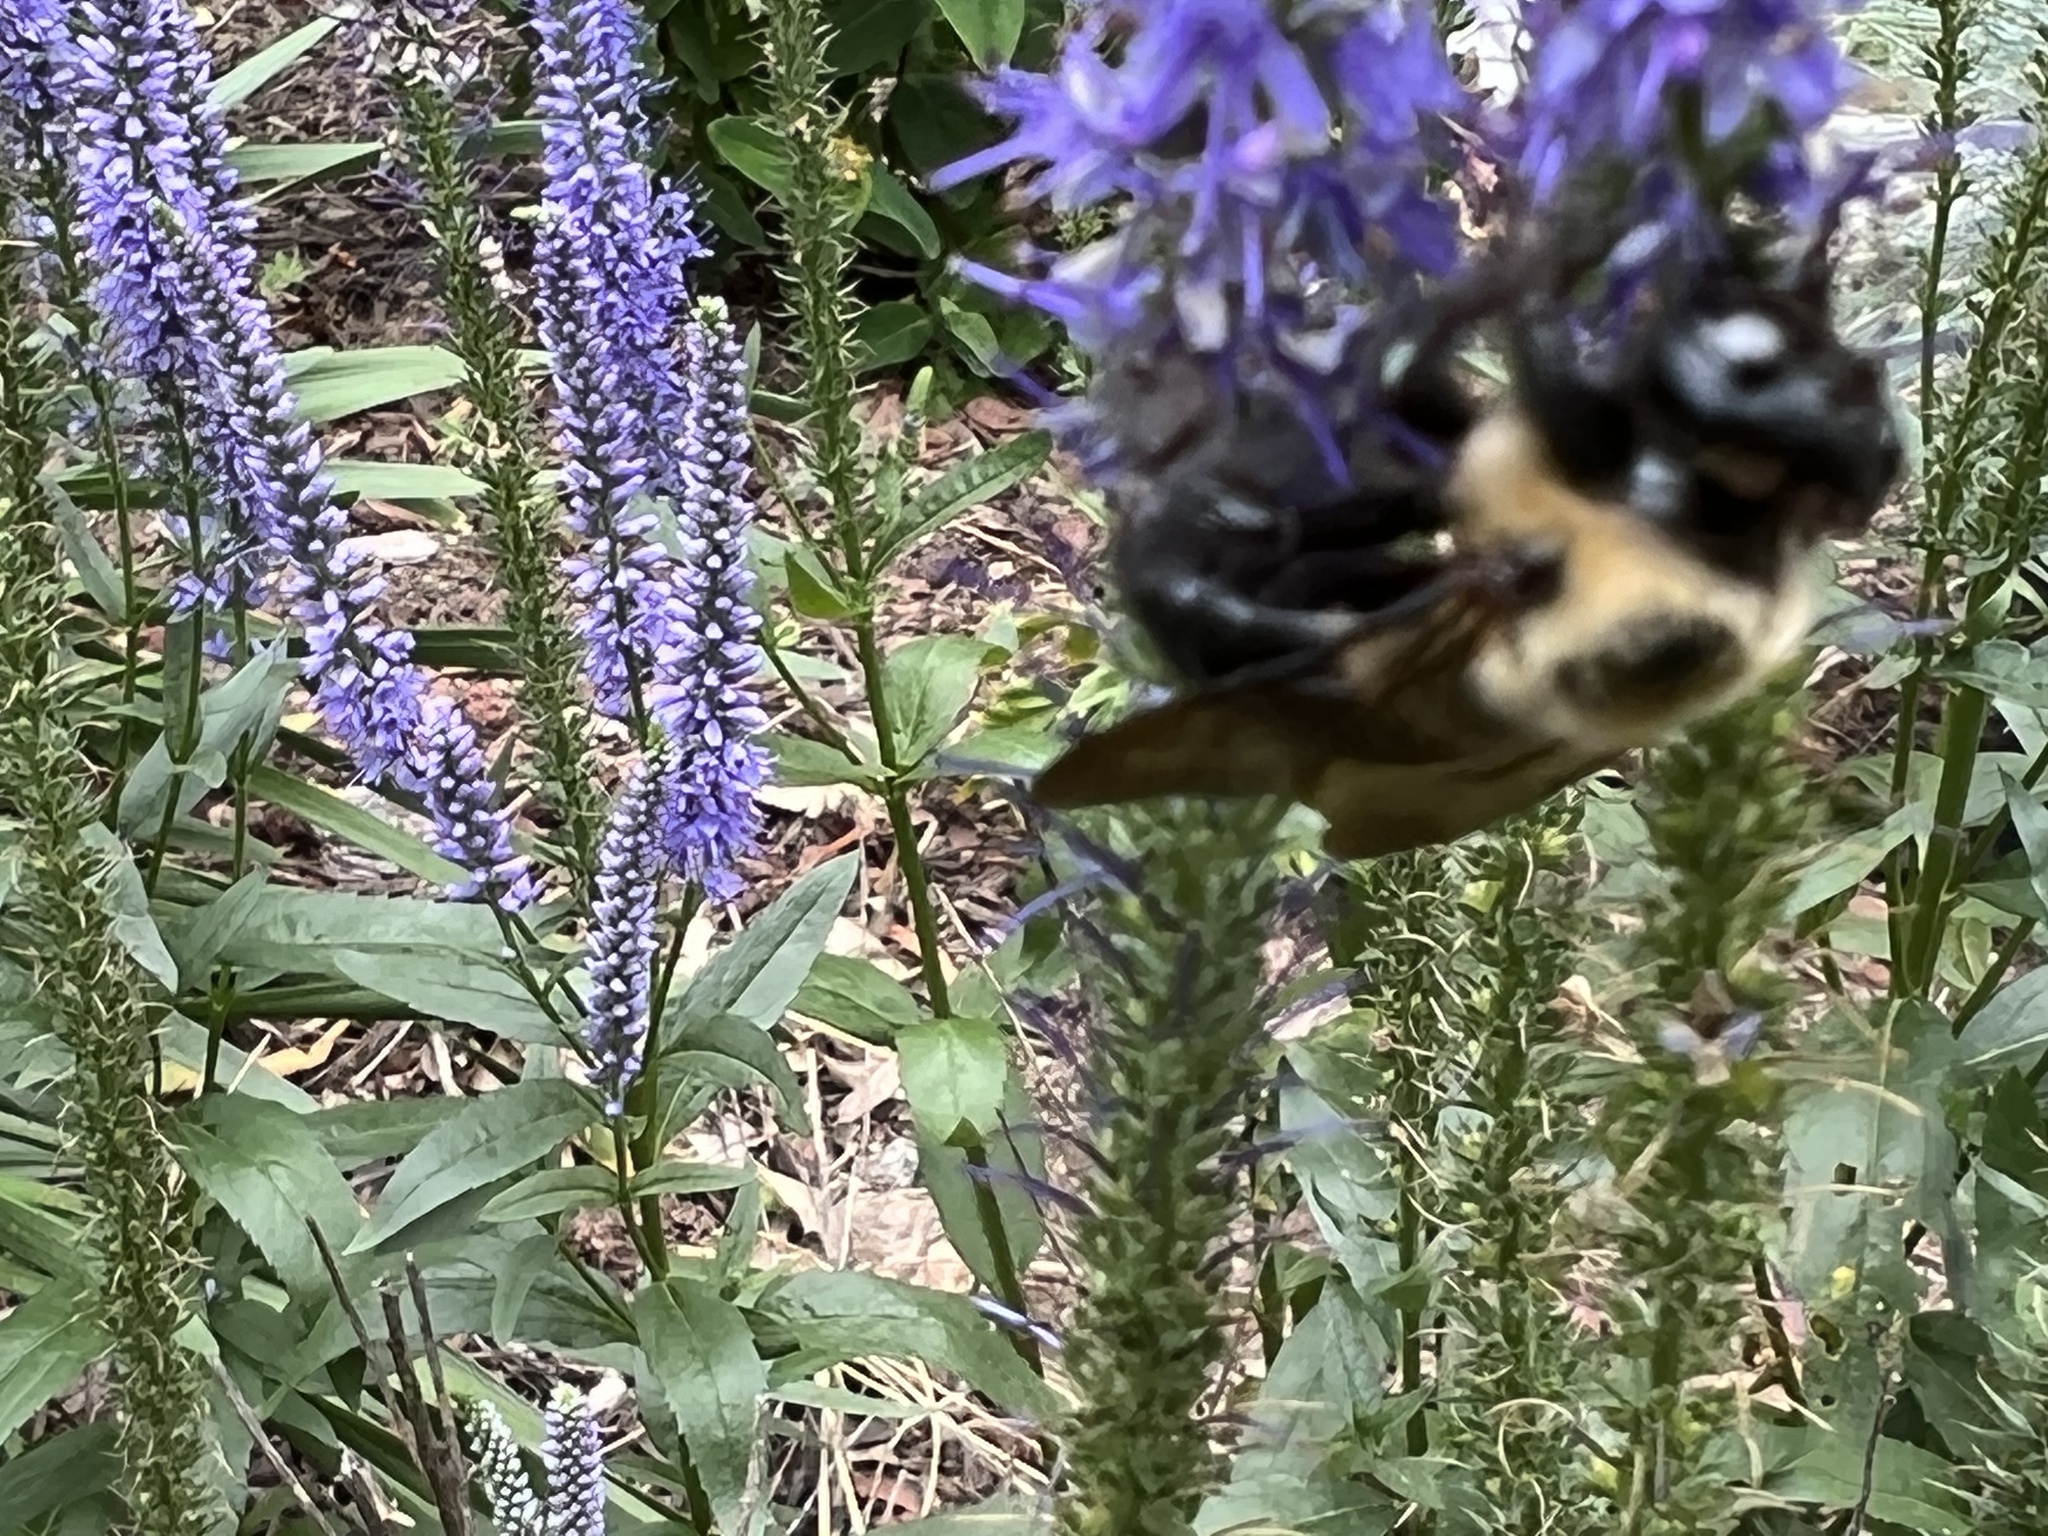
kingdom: Animalia
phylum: Arthropoda
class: Insecta
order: Hymenoptera
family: Apidae
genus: Xylocopa
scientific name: Xylocopa virginica
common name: Carpenter bee
